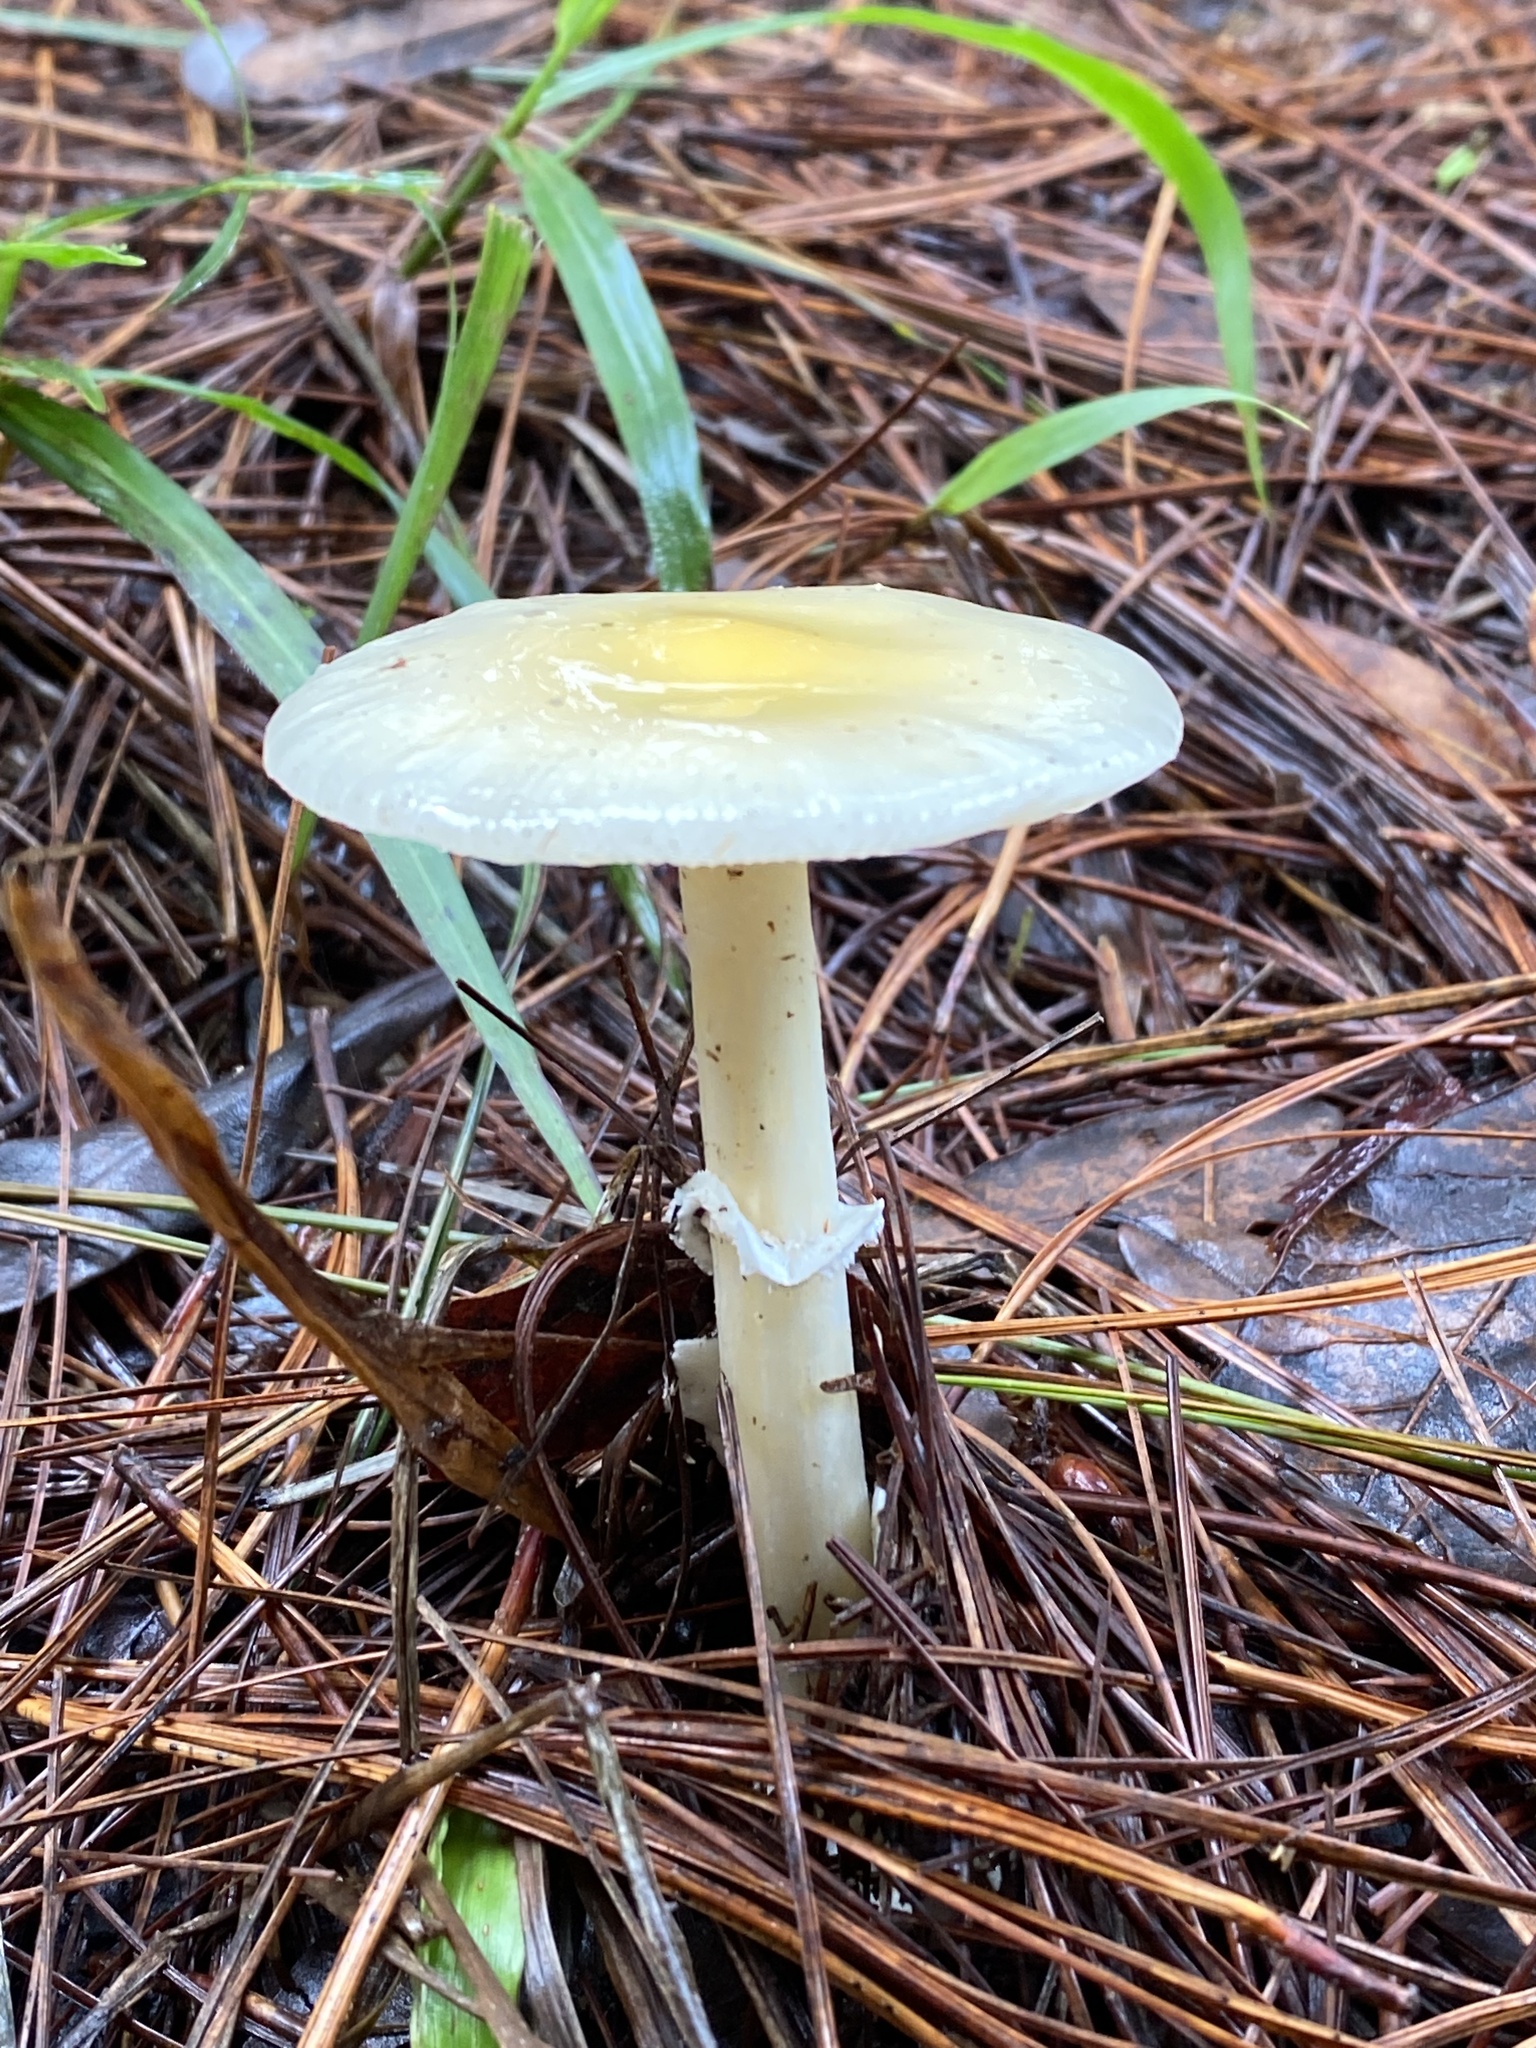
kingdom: Fungi
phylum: Basidiomycota
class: Agaricomycetes
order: Agaricales
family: Amanitaceae
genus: Amanita
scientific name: Amanita xylinivolva
